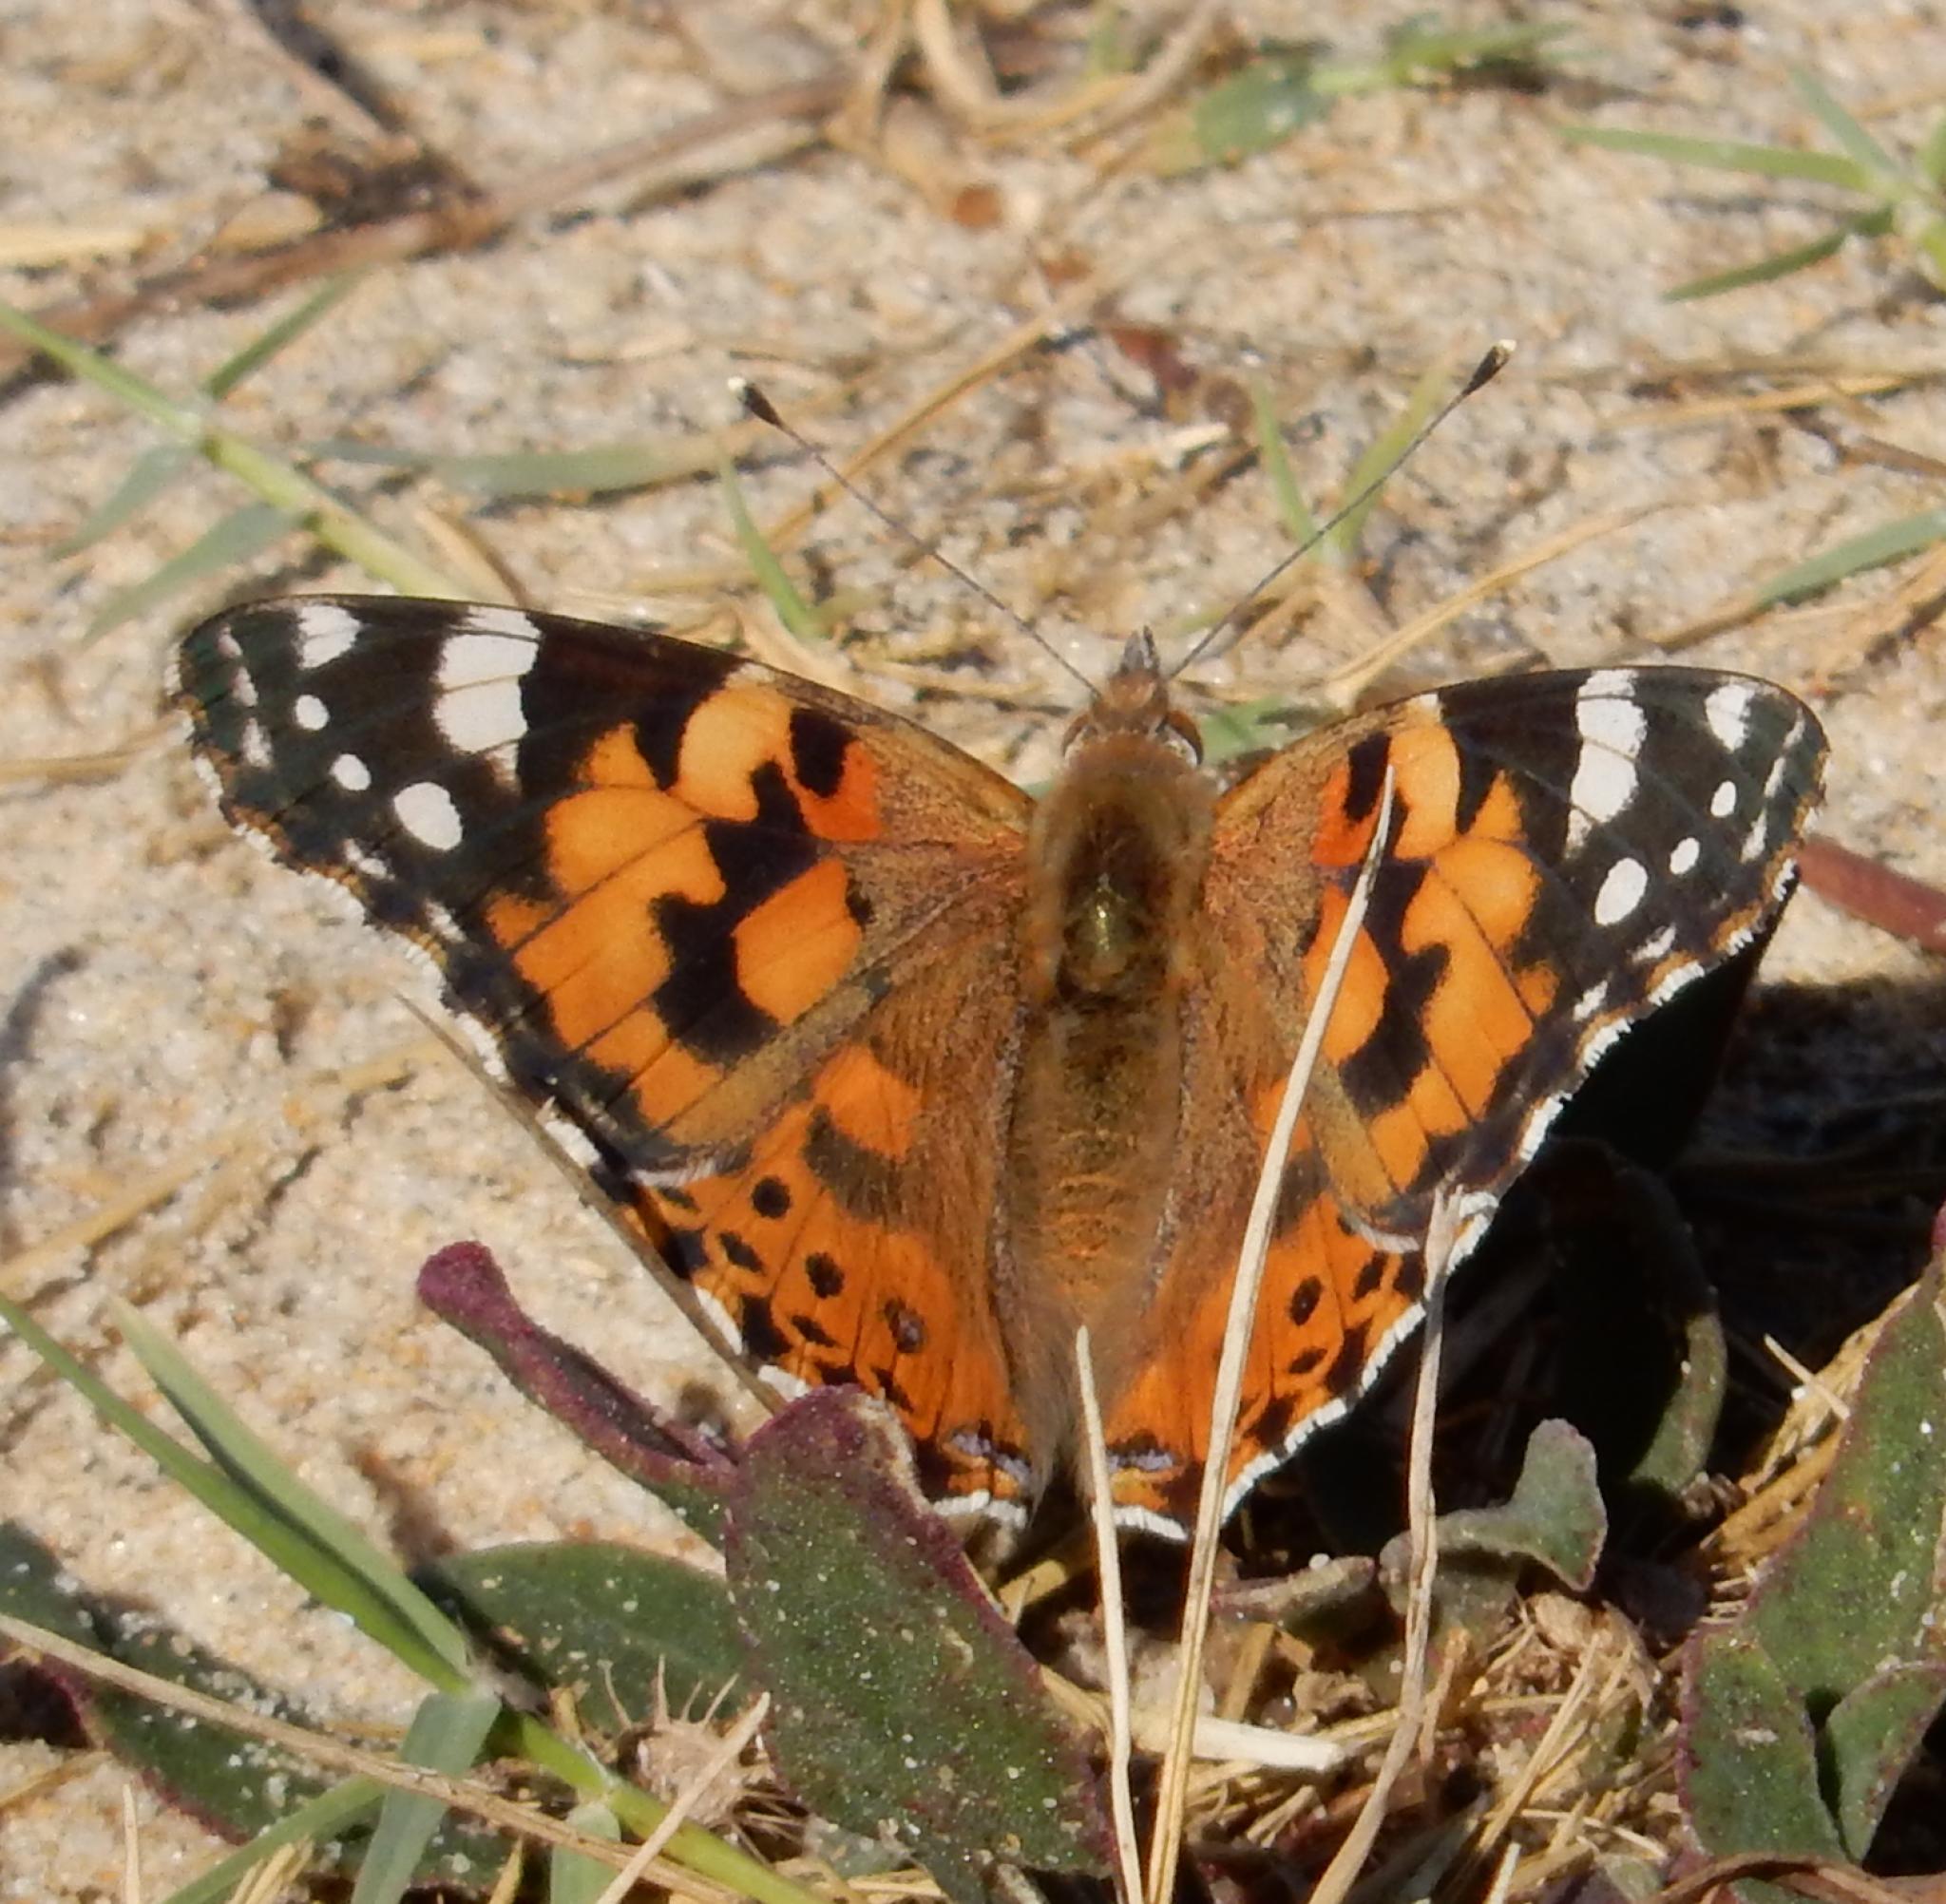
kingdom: Animalia
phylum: Arthropoda
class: Insecta
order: Lepidoptera
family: Nymphalidae
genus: Vanessa
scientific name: Vanessa cardui
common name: Painted lady
